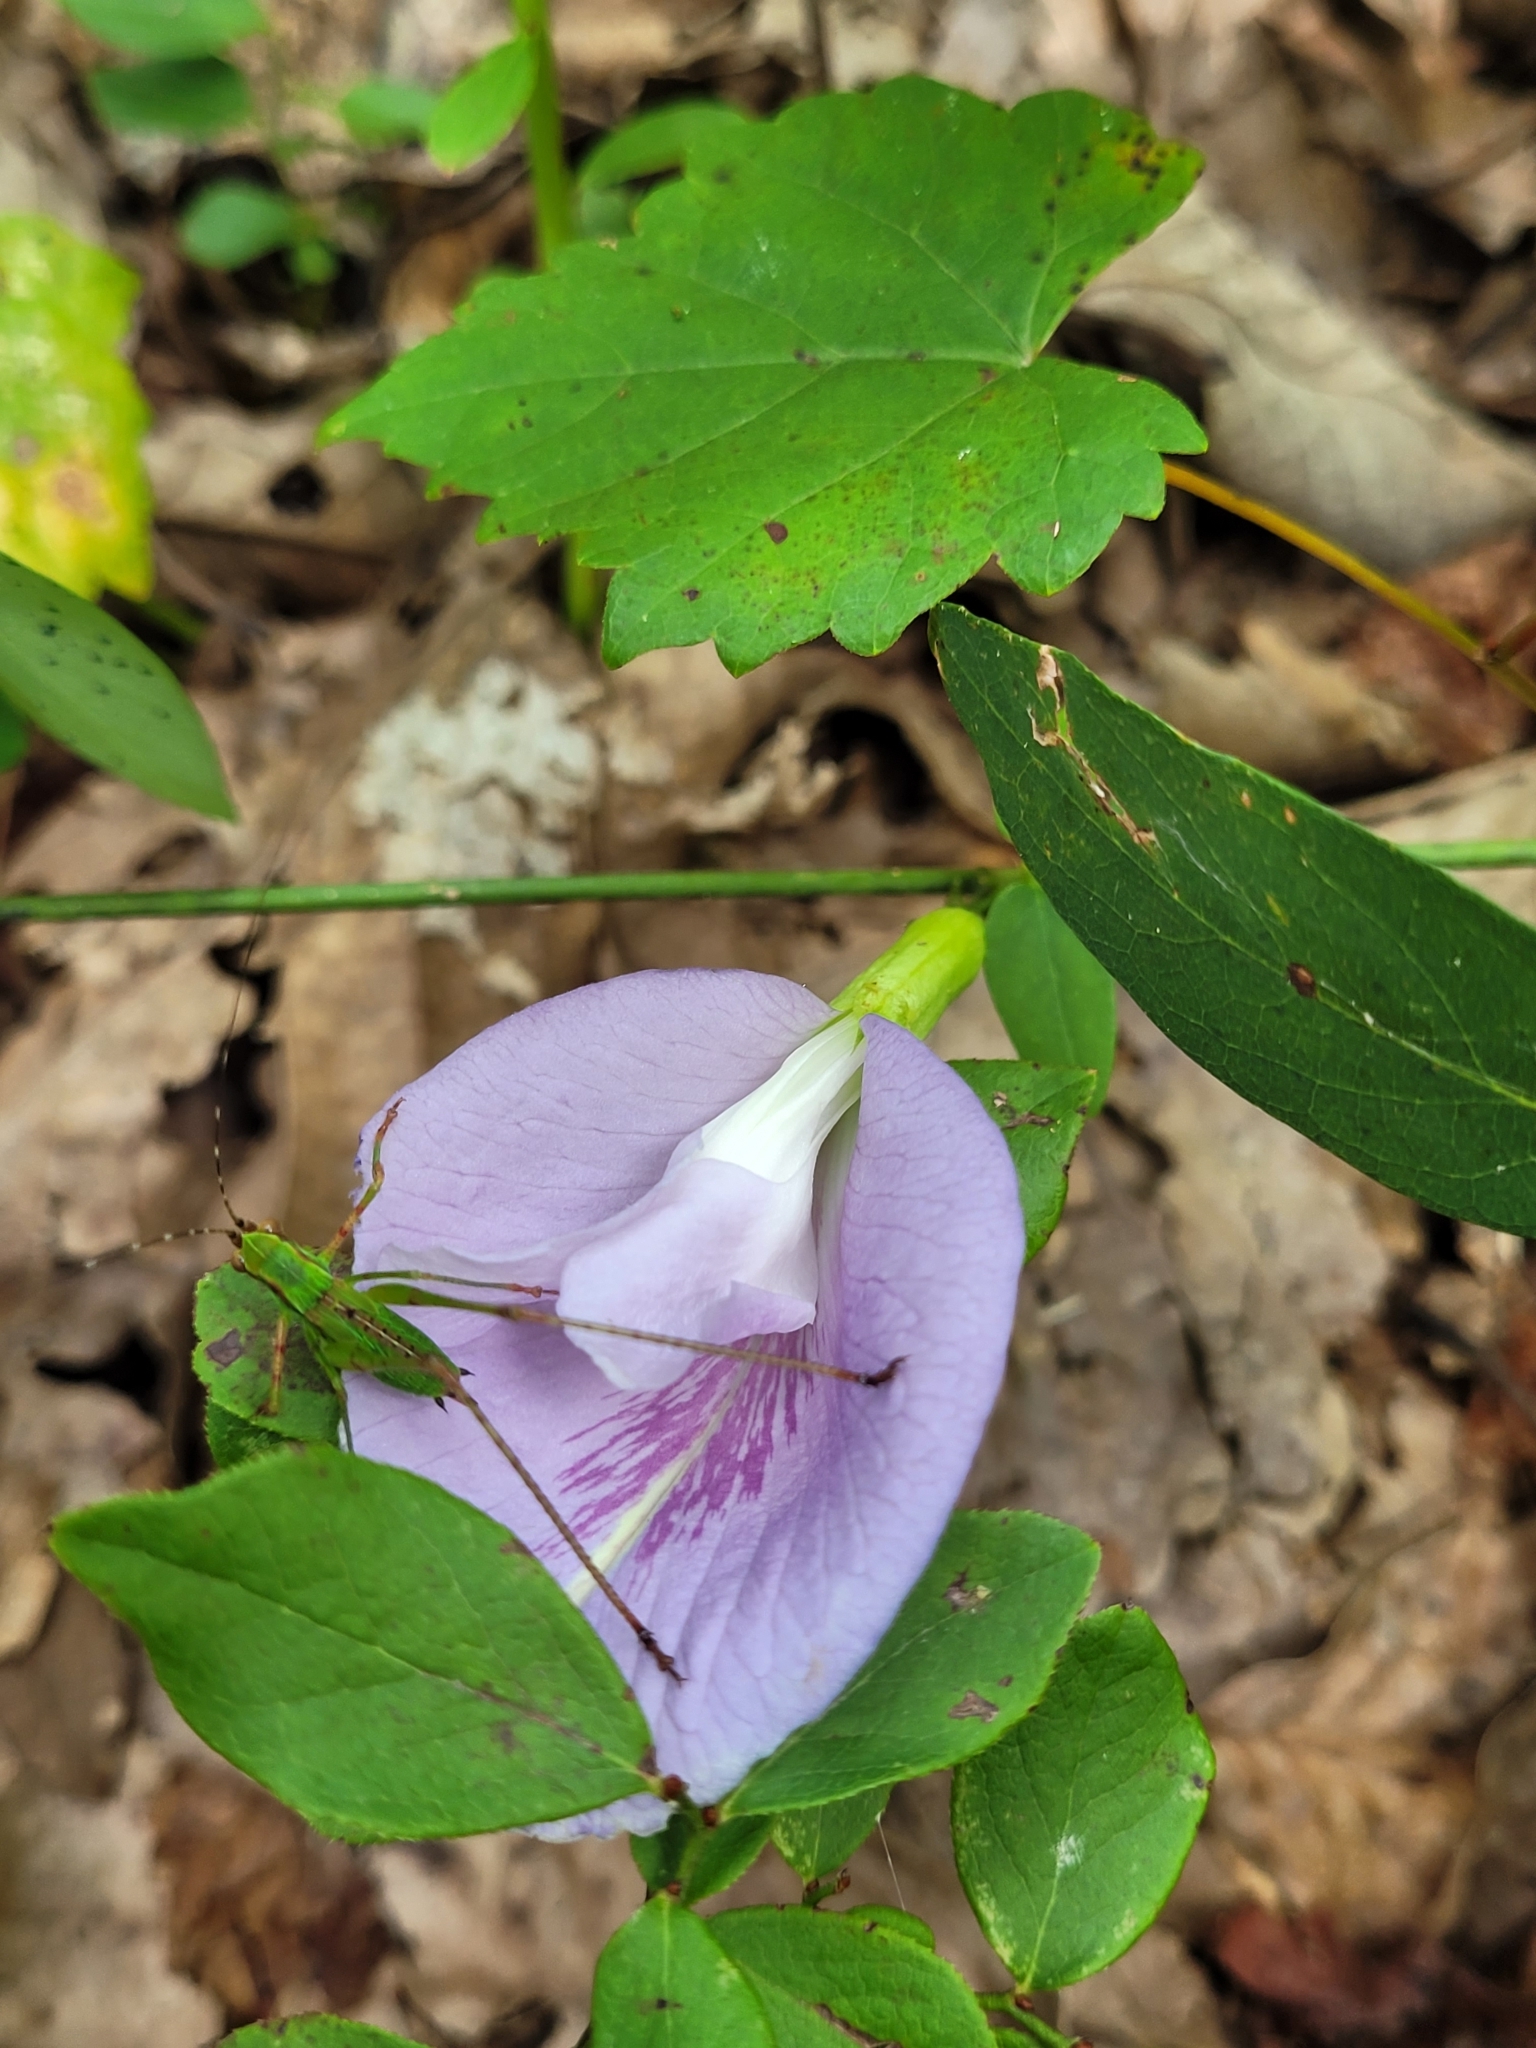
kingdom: Plantae
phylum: Tracheophyta
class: Magnoliopsida
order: Fabales
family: Fabaceae
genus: Clitoria
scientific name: Clitoria mariana
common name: Butterfly-pea
